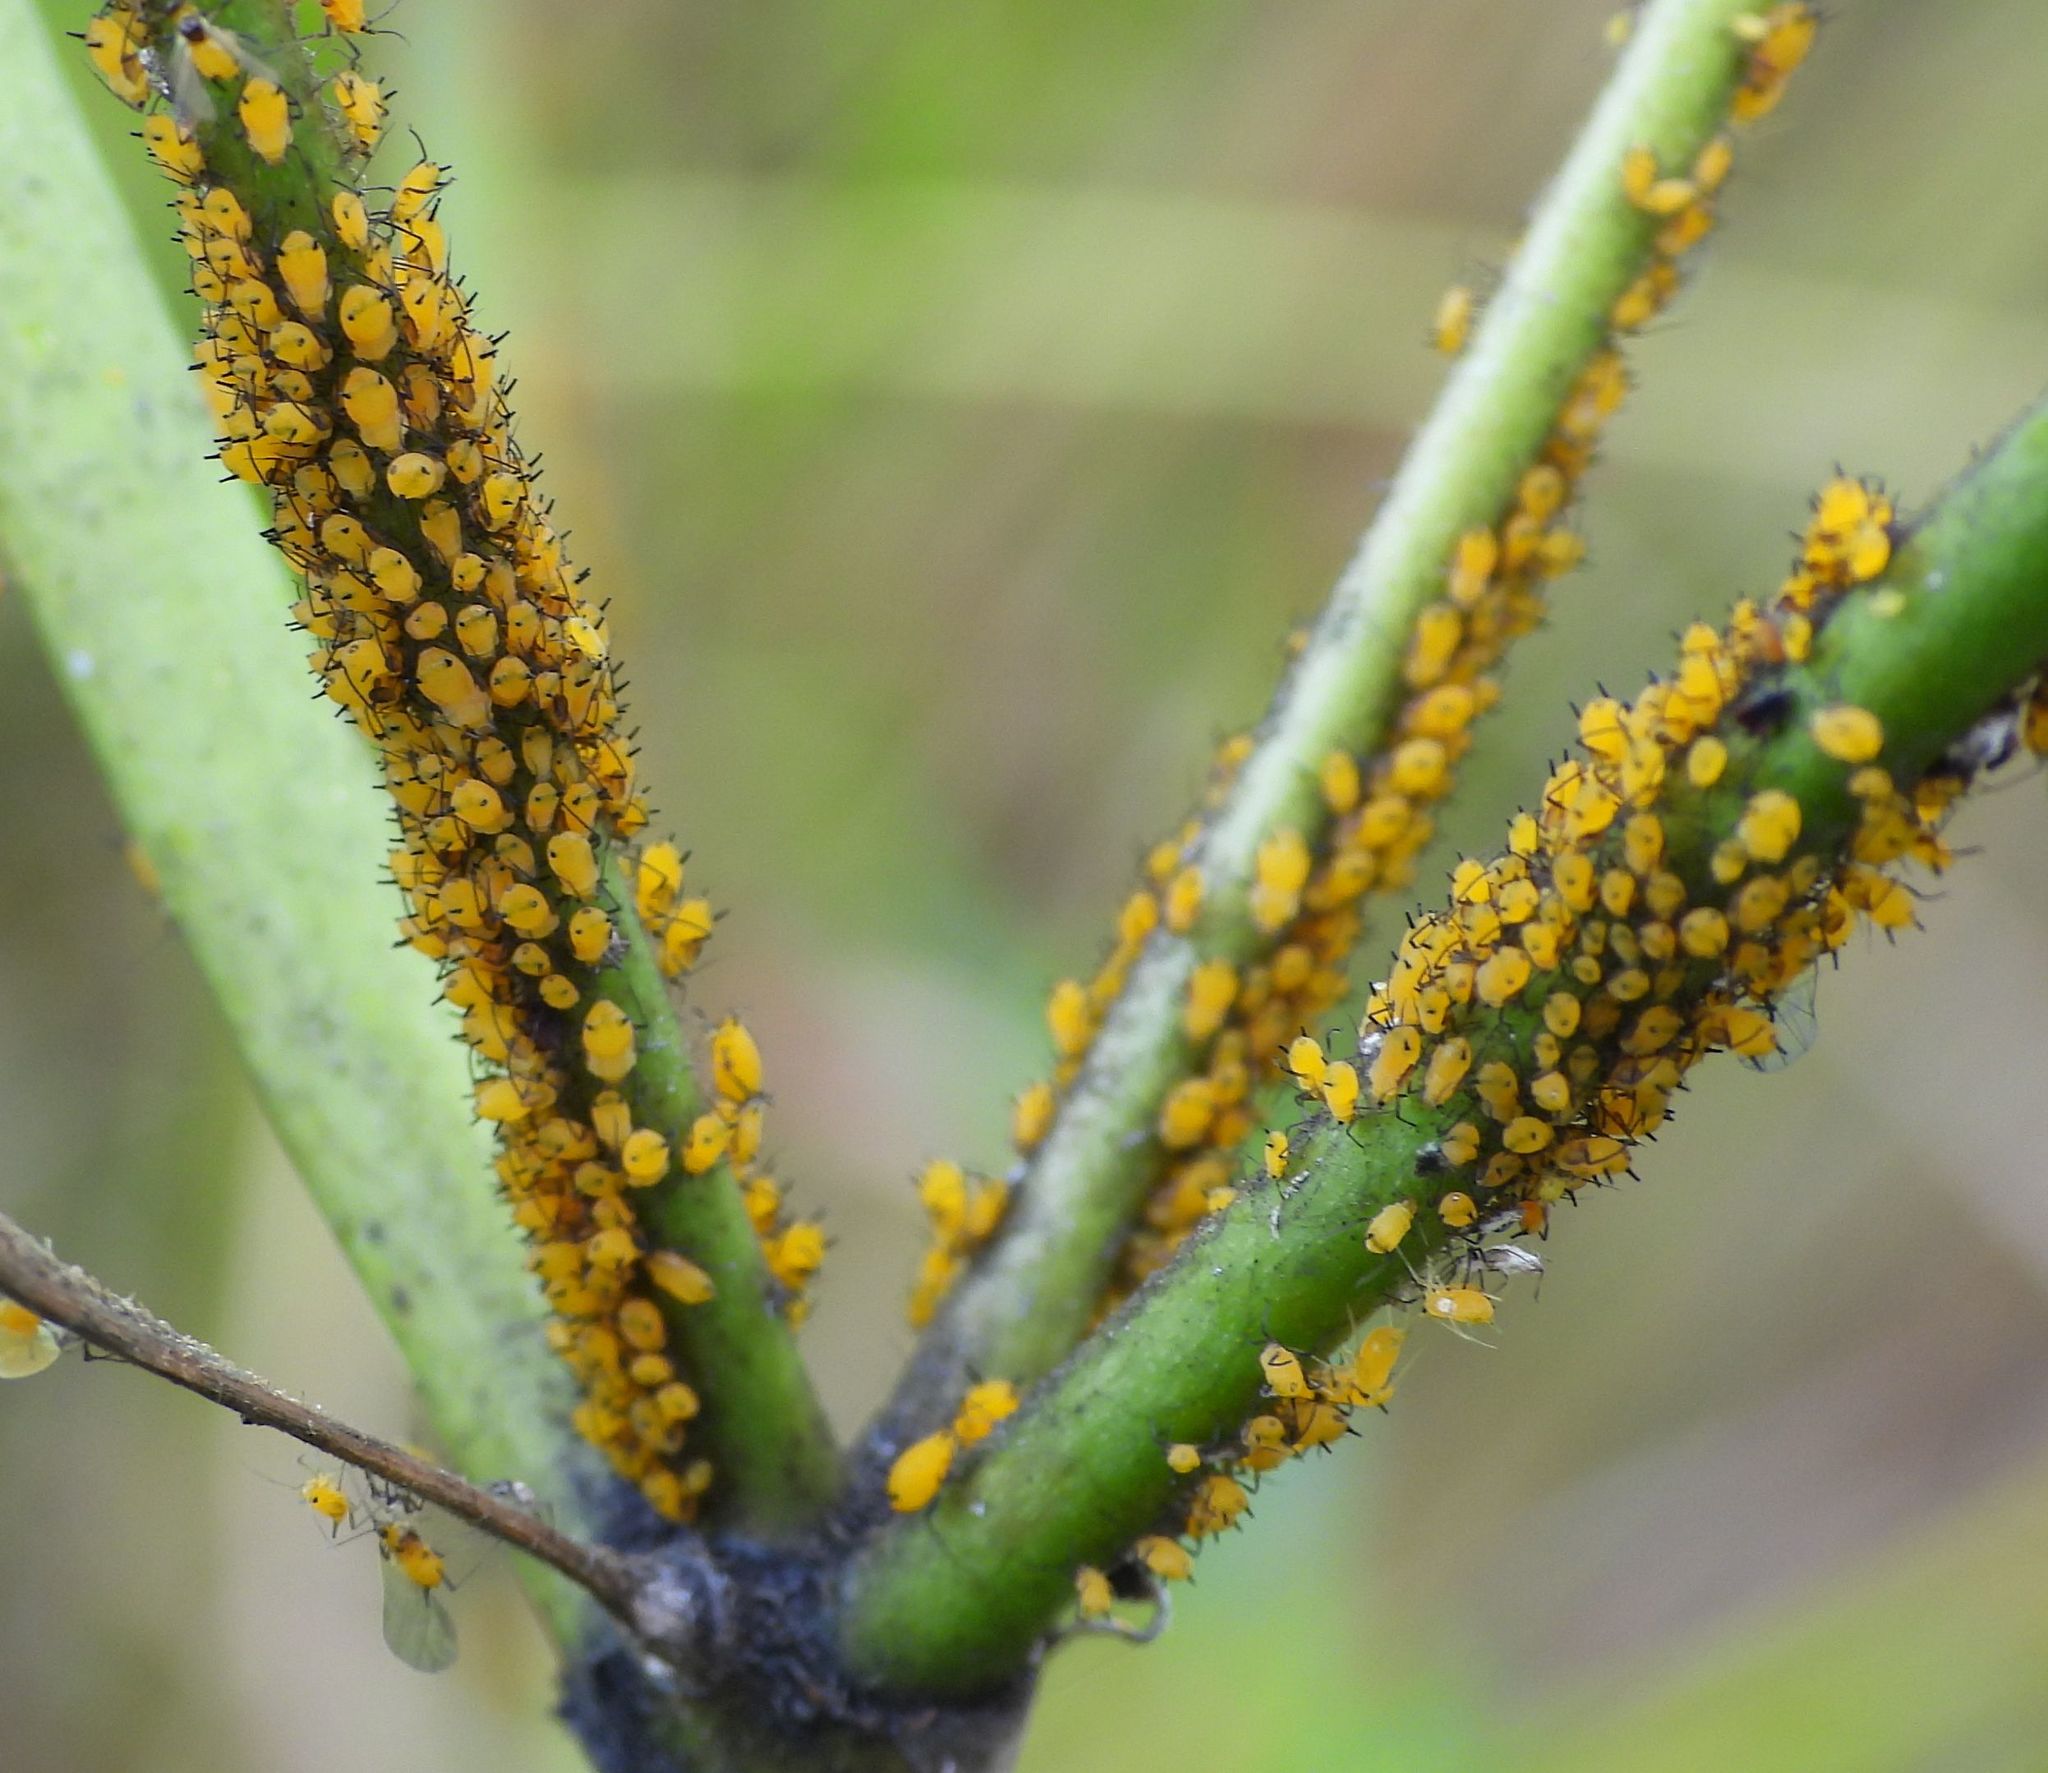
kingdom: Animalia
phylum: Arthropoda
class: Insecta
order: Hemiptera
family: Aphididae
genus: Aphis
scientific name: Aphis nerii
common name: Oleander aphid
